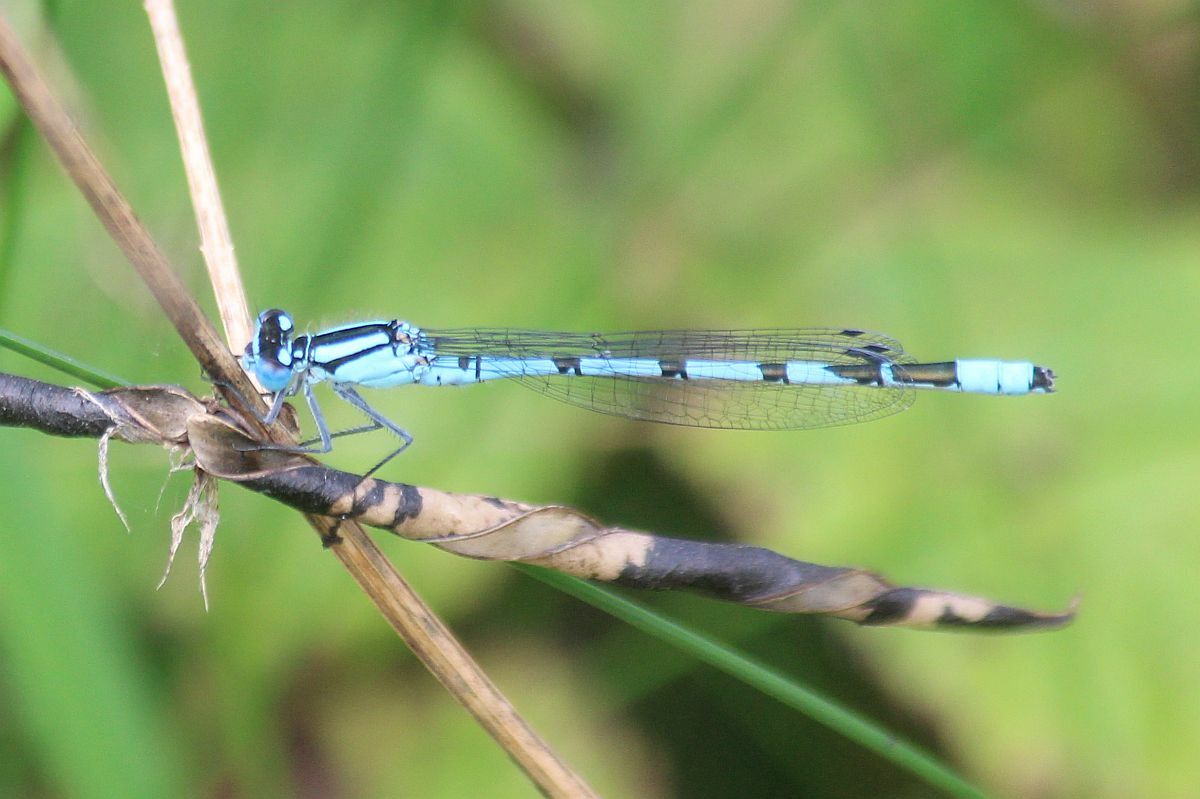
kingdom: Animalia
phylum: Arthropoda
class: Insecta
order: Odonata
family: Coenagrionidae
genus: Enallagma
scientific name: Enallagma cyathigerum
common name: Common blue damselfly
